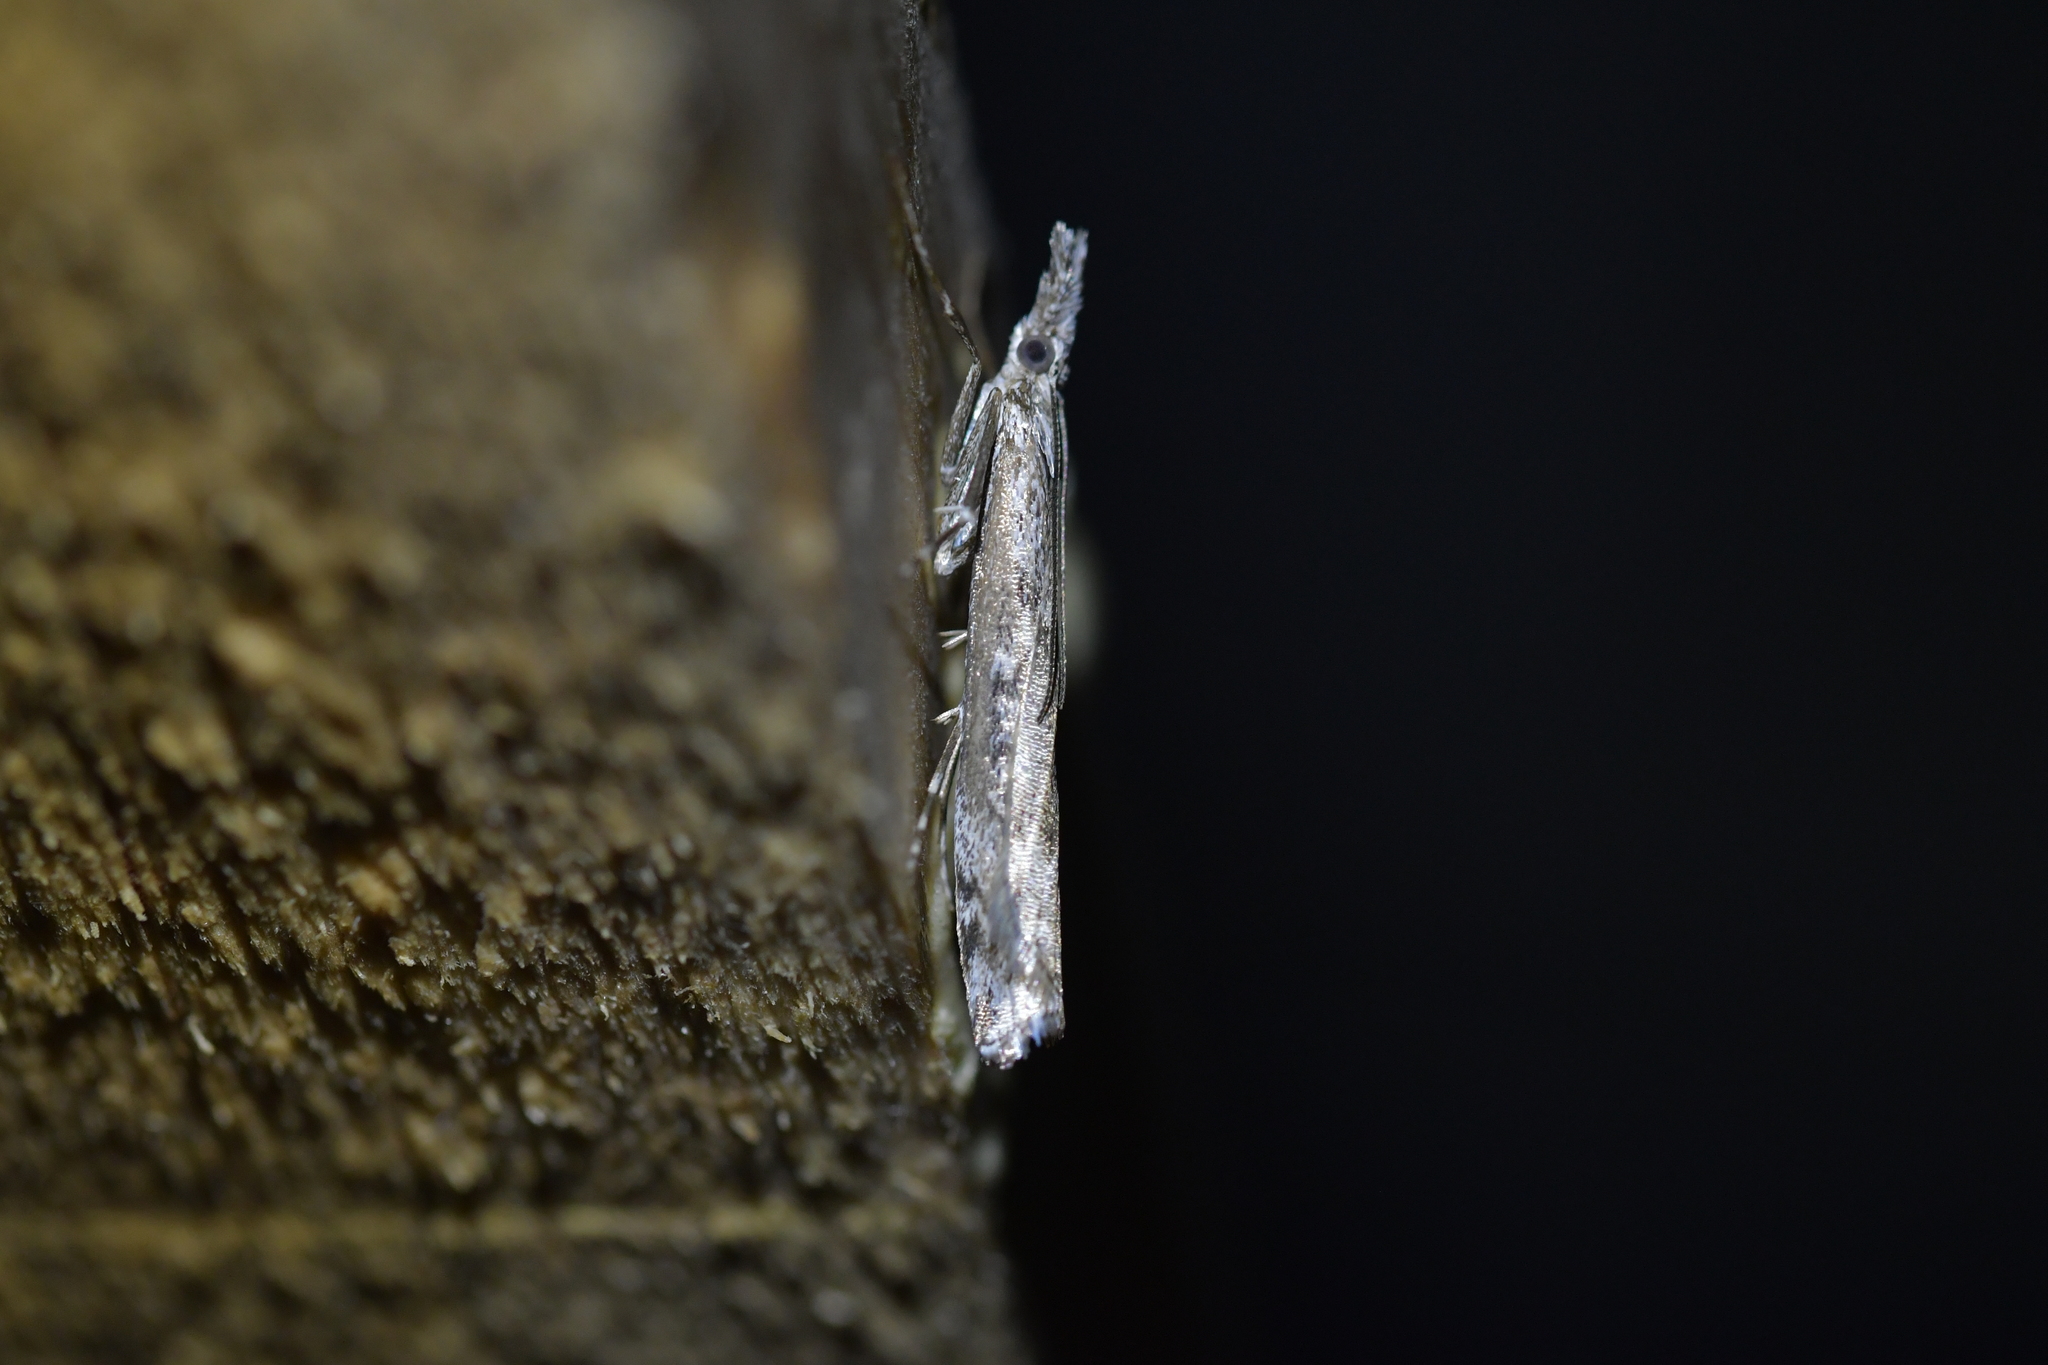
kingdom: Animalia
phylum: Arthropoda
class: Insecta
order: Lepidoptera
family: Crambidae
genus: Orocrambus
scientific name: Orocrambus cyclopicus
